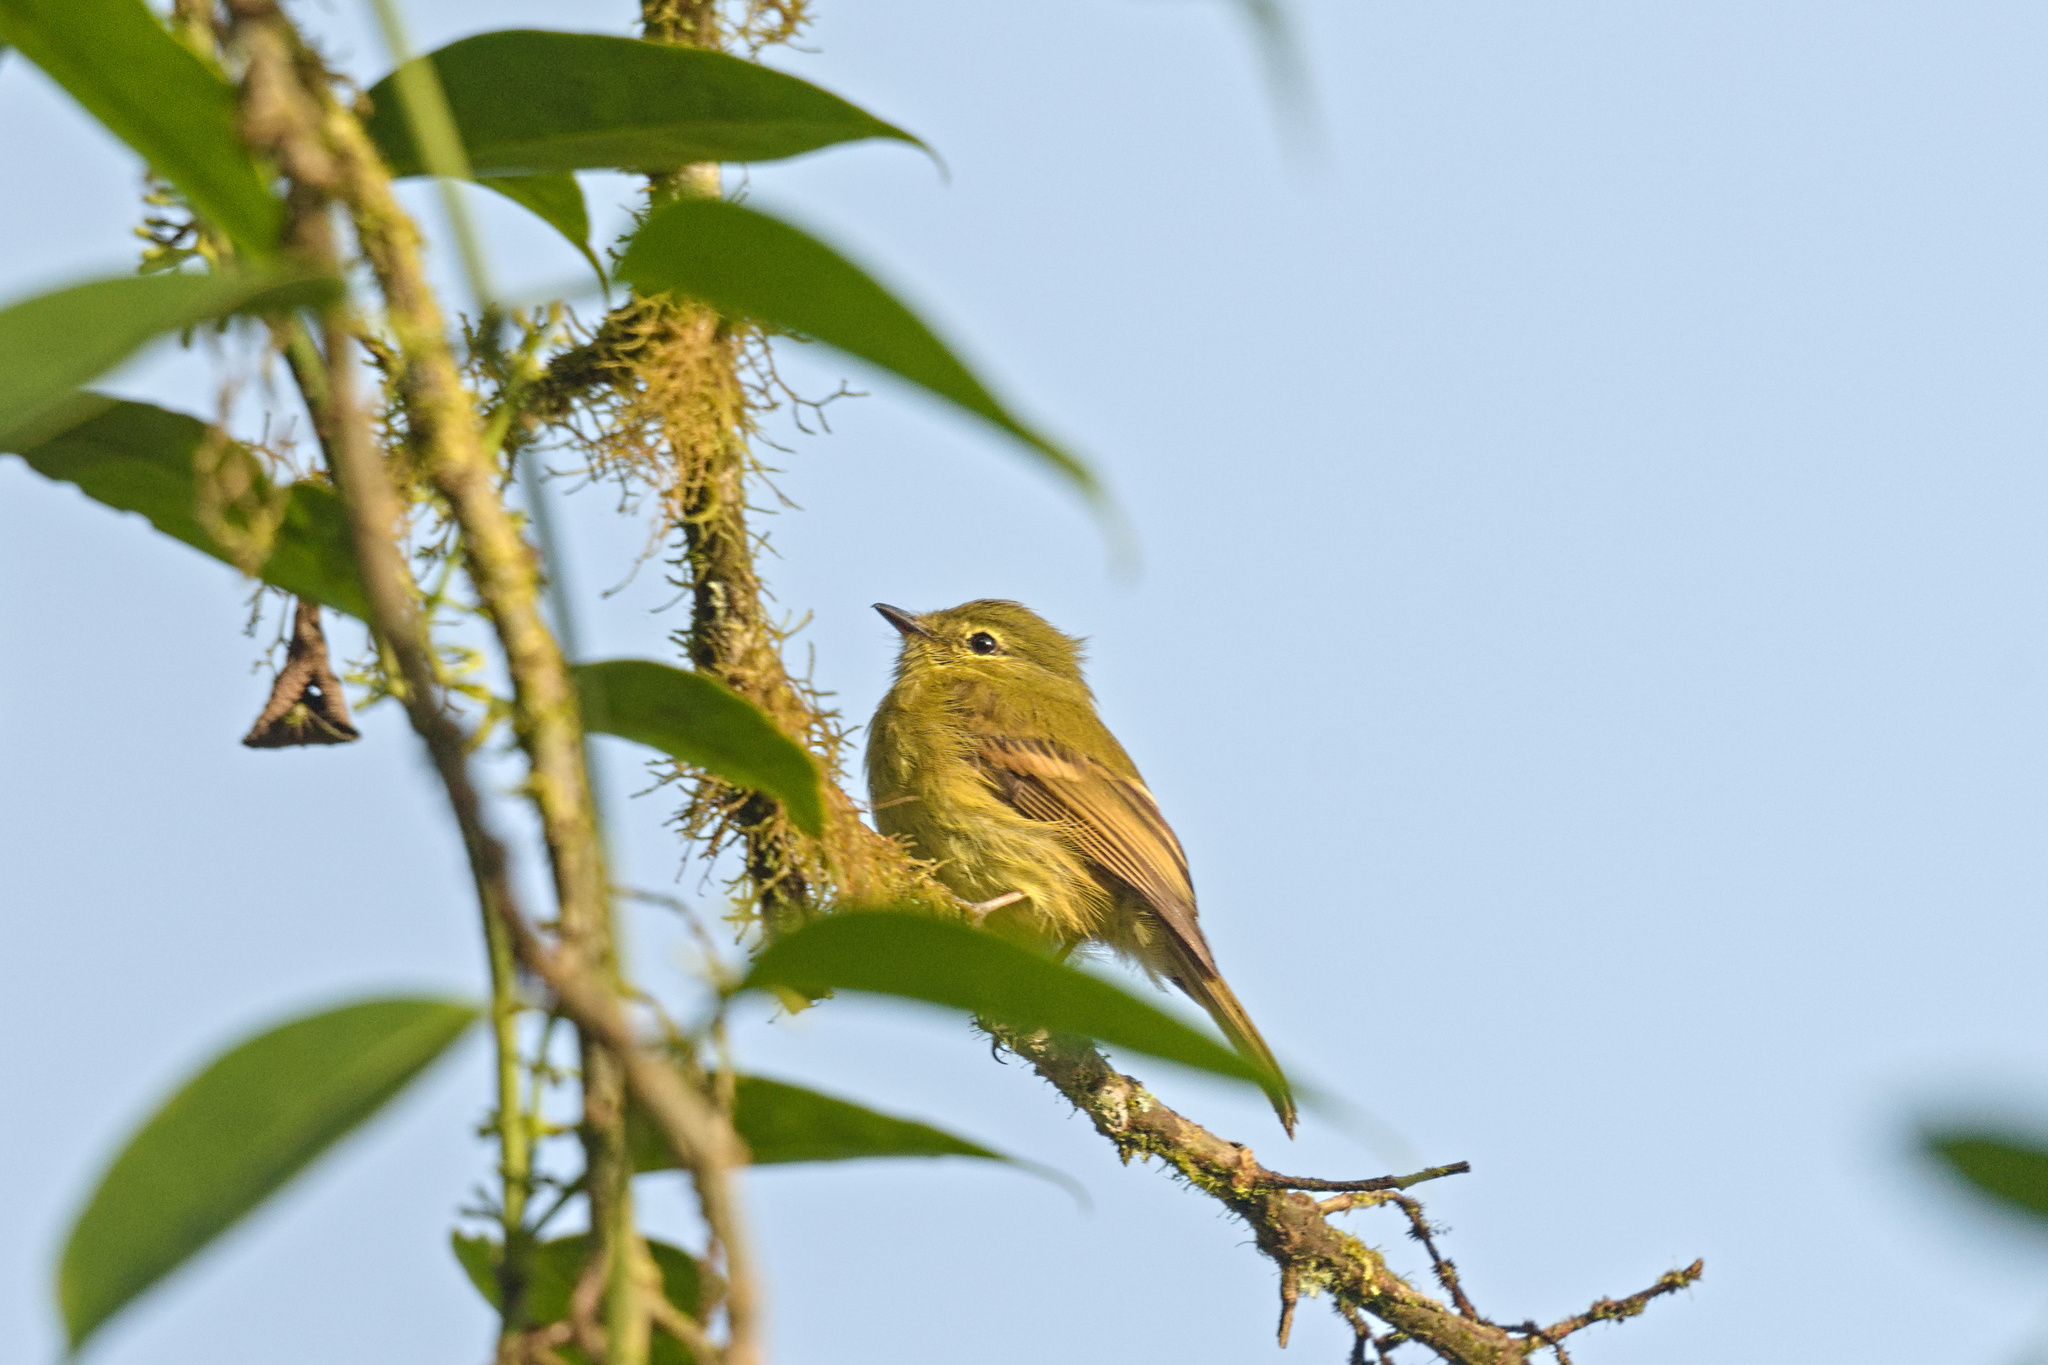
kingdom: Animalia
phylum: Chordata
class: Aves
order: Passeriformes
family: Tyrannidae
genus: Myiophobus
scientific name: Myiophobus flavicans
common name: Flavescent flycatcher
